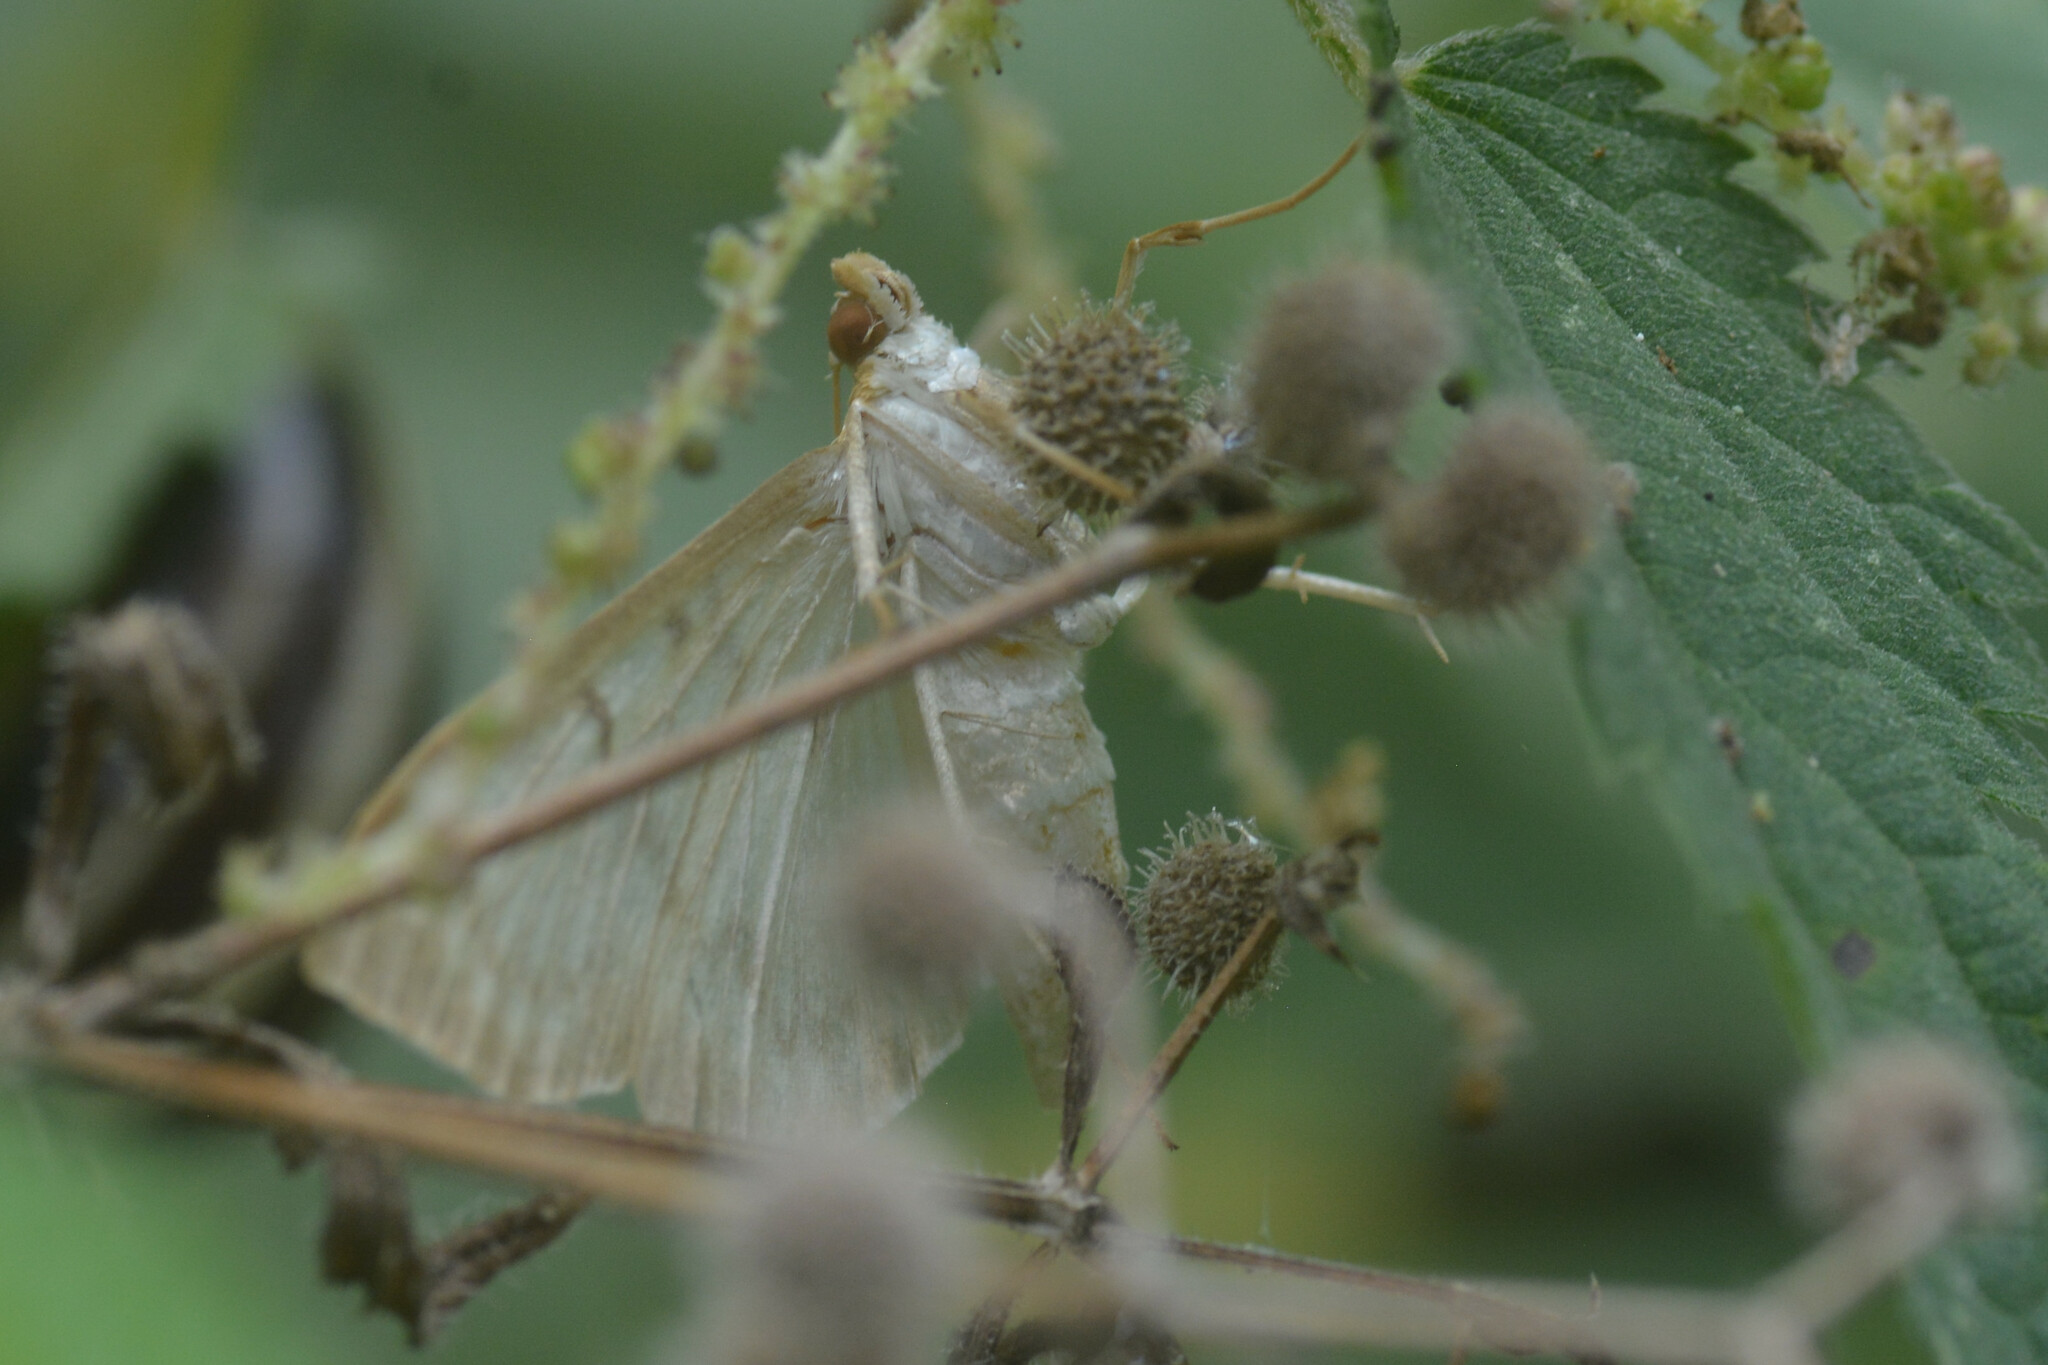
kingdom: Animalia
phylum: Arthropoda
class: Insecta
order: Lepidoptera
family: Crambidae
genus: Patania
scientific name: Patania ruralis
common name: Mother of pearl
